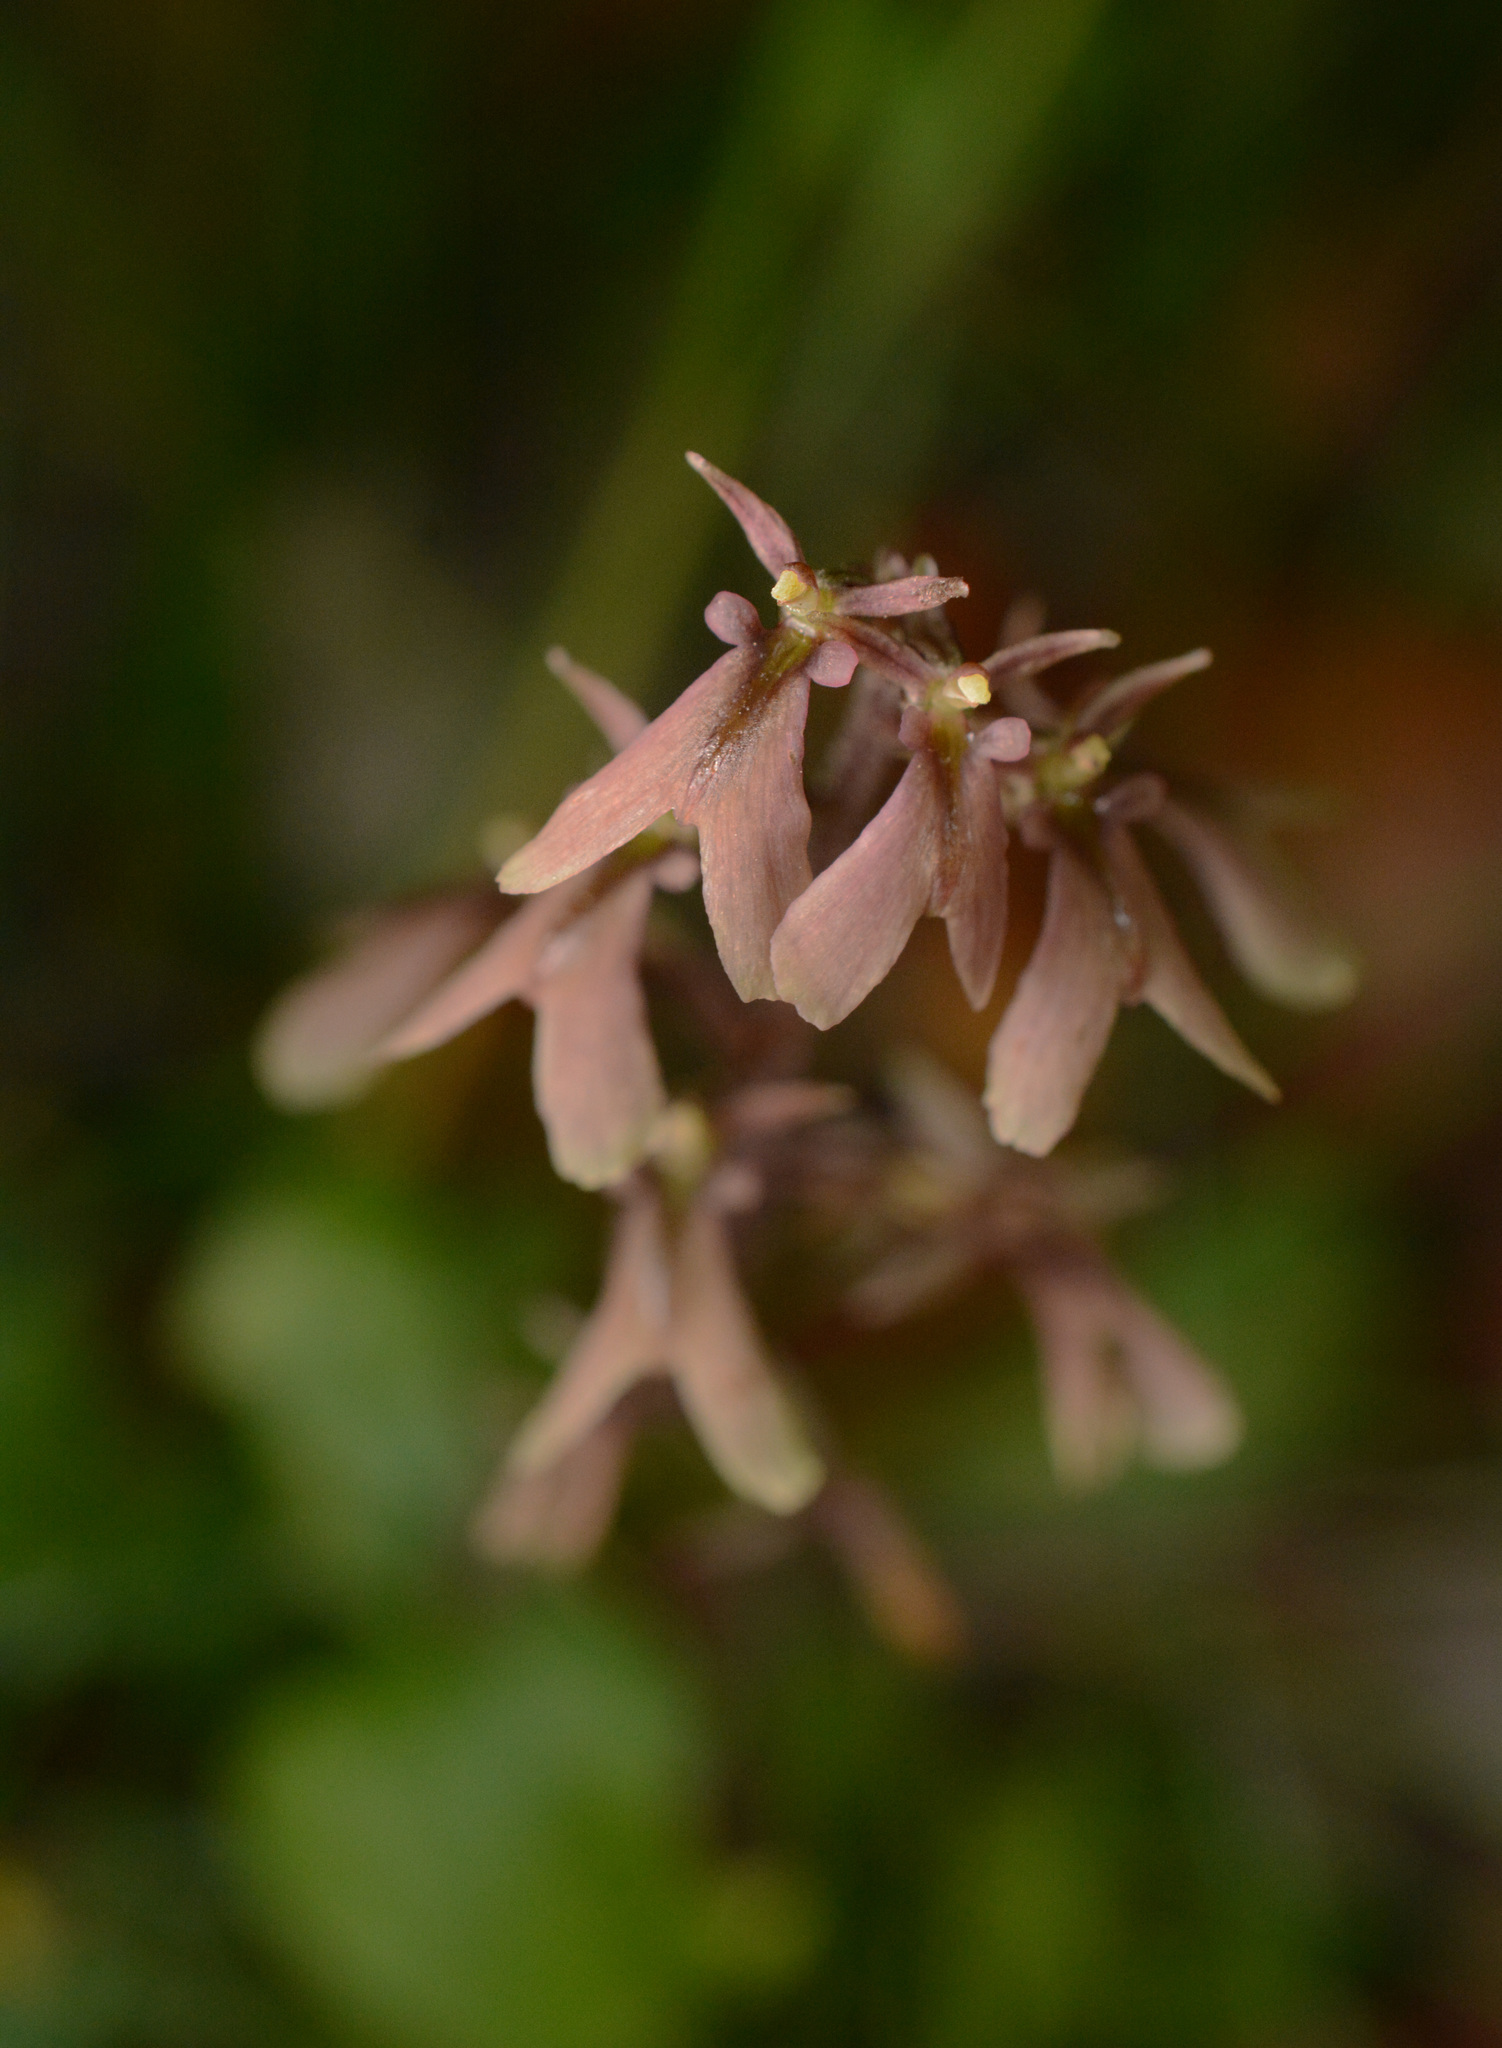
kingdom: Plantae
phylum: Tracheophyta
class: Liliopsida
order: Asparagales
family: Orchidaceae
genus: Neottia
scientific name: Neottia smallii
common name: Kidneyleaf twayblade
